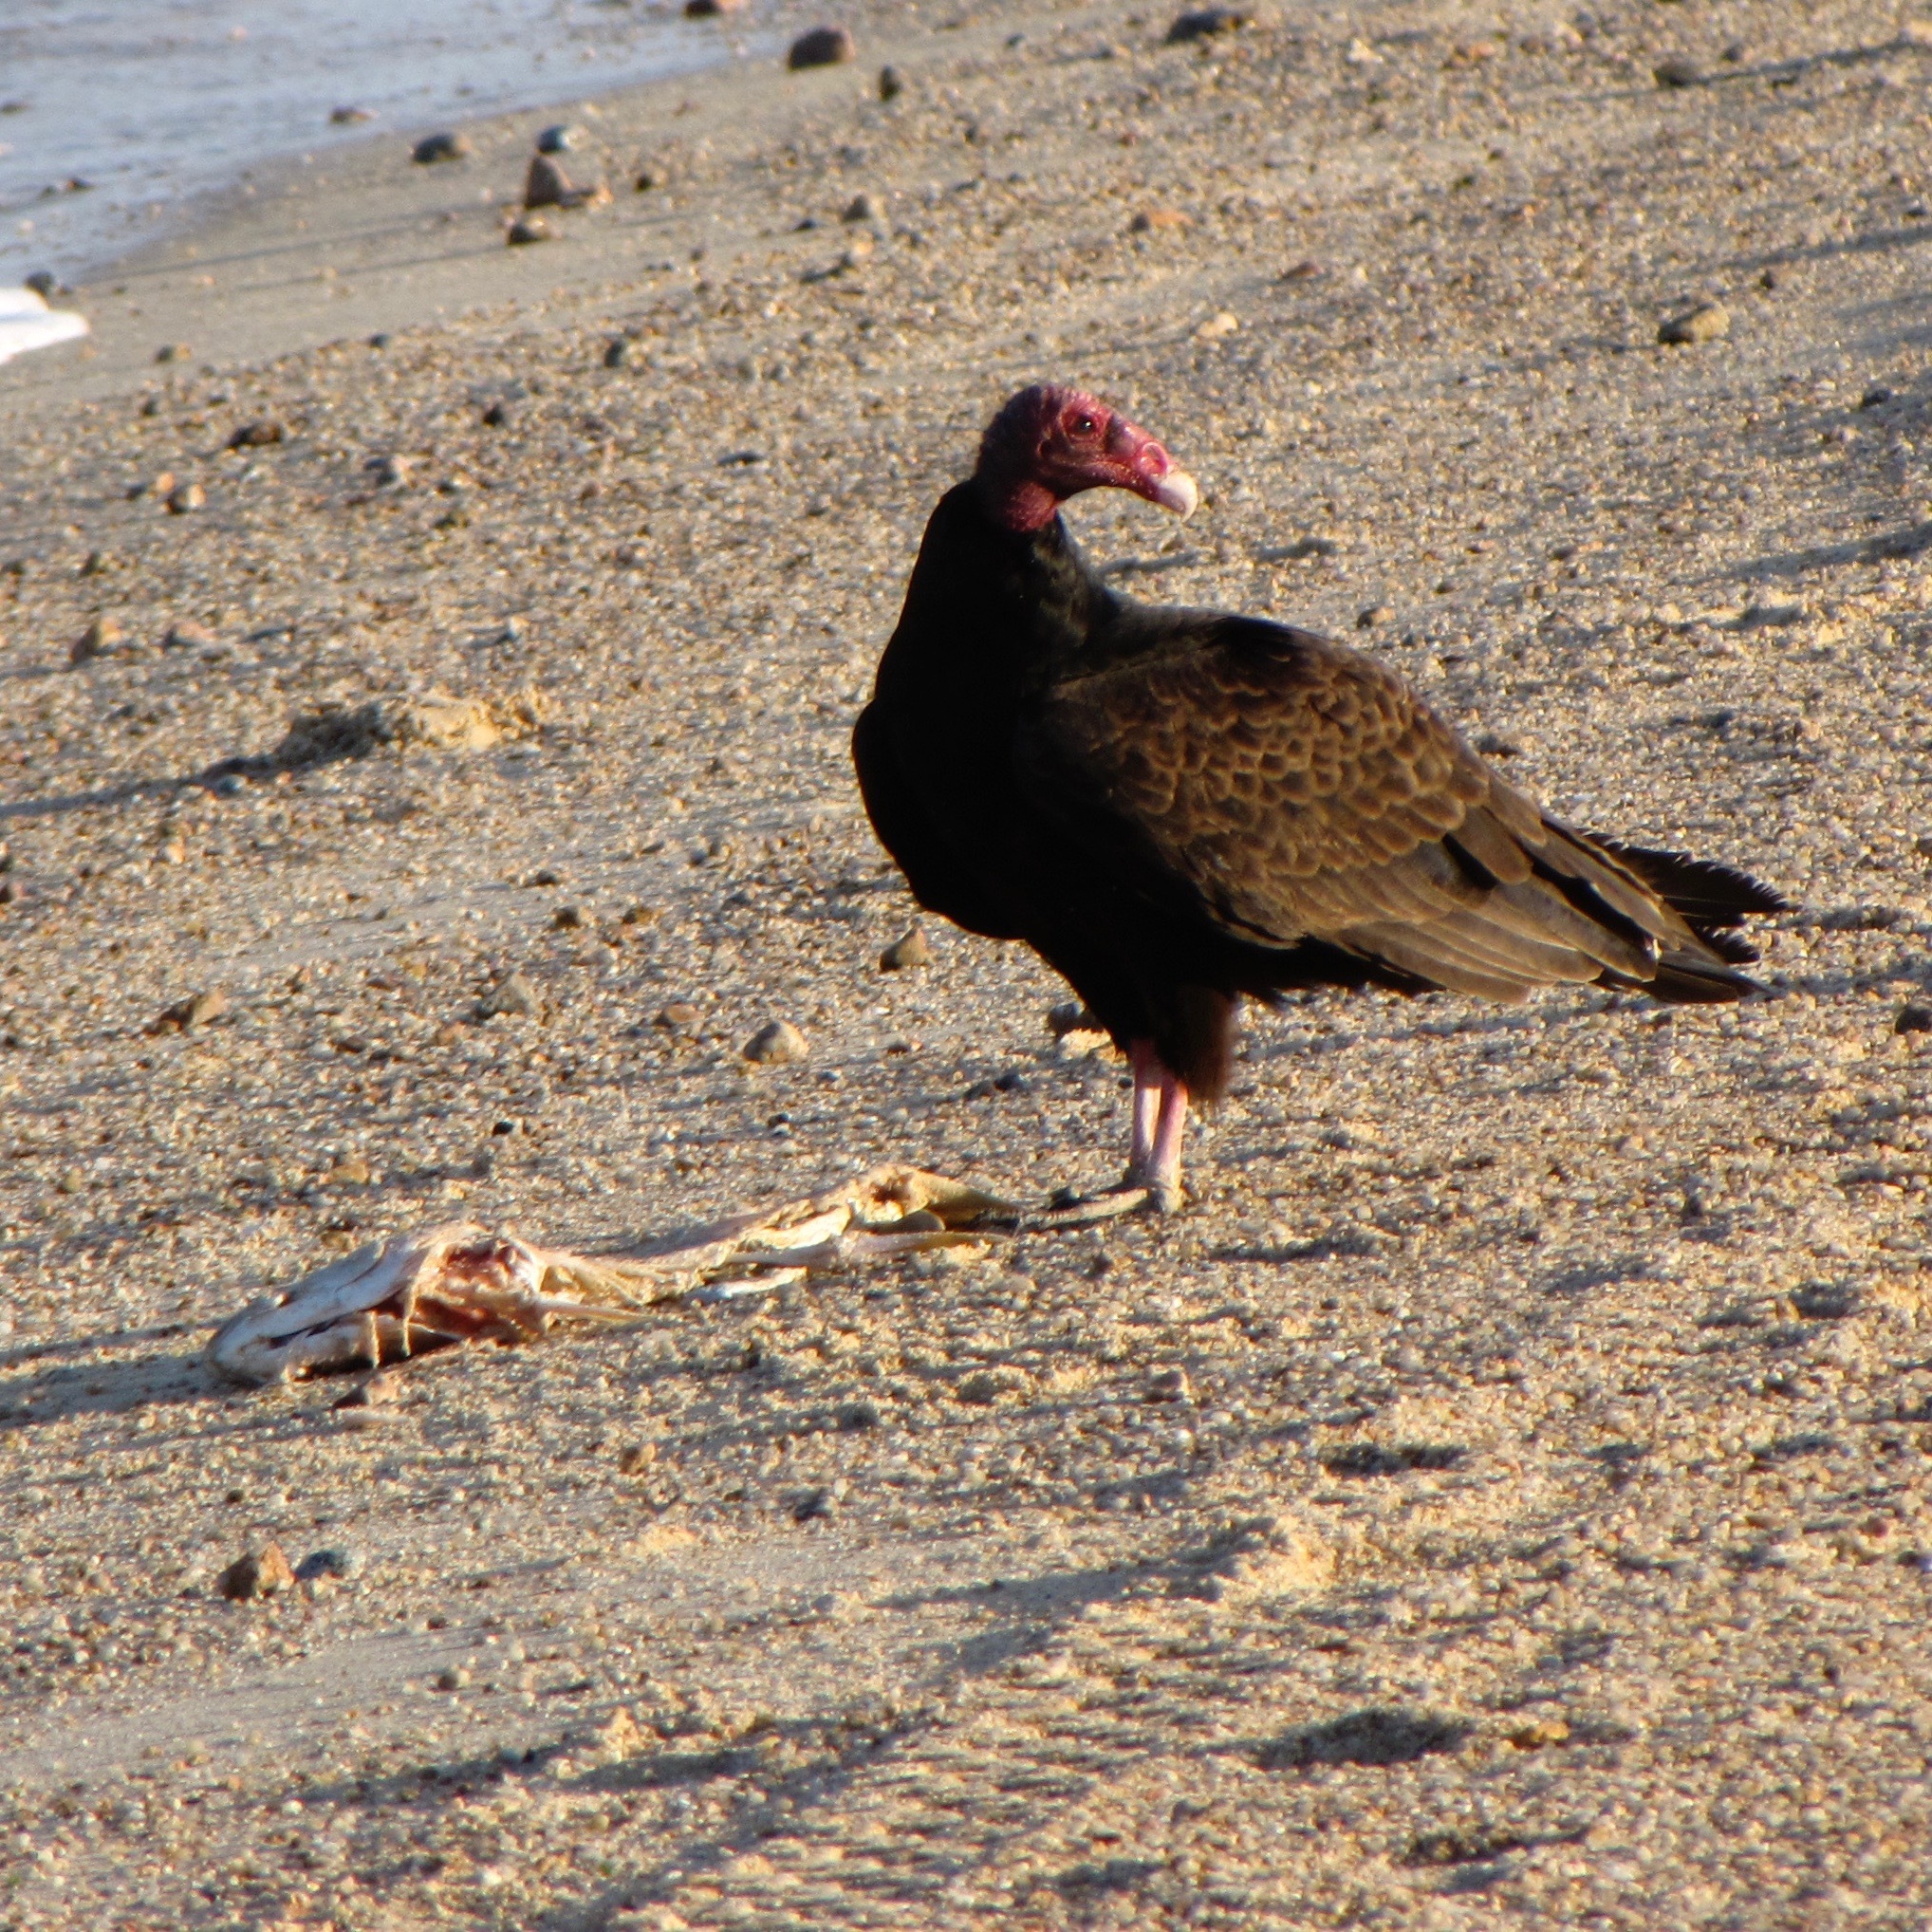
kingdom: Animalia
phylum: Chordata
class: Aves
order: Accipitriformes
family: Cathartidae
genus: Cathartes
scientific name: Cathartes aura
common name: Turkey vulture
